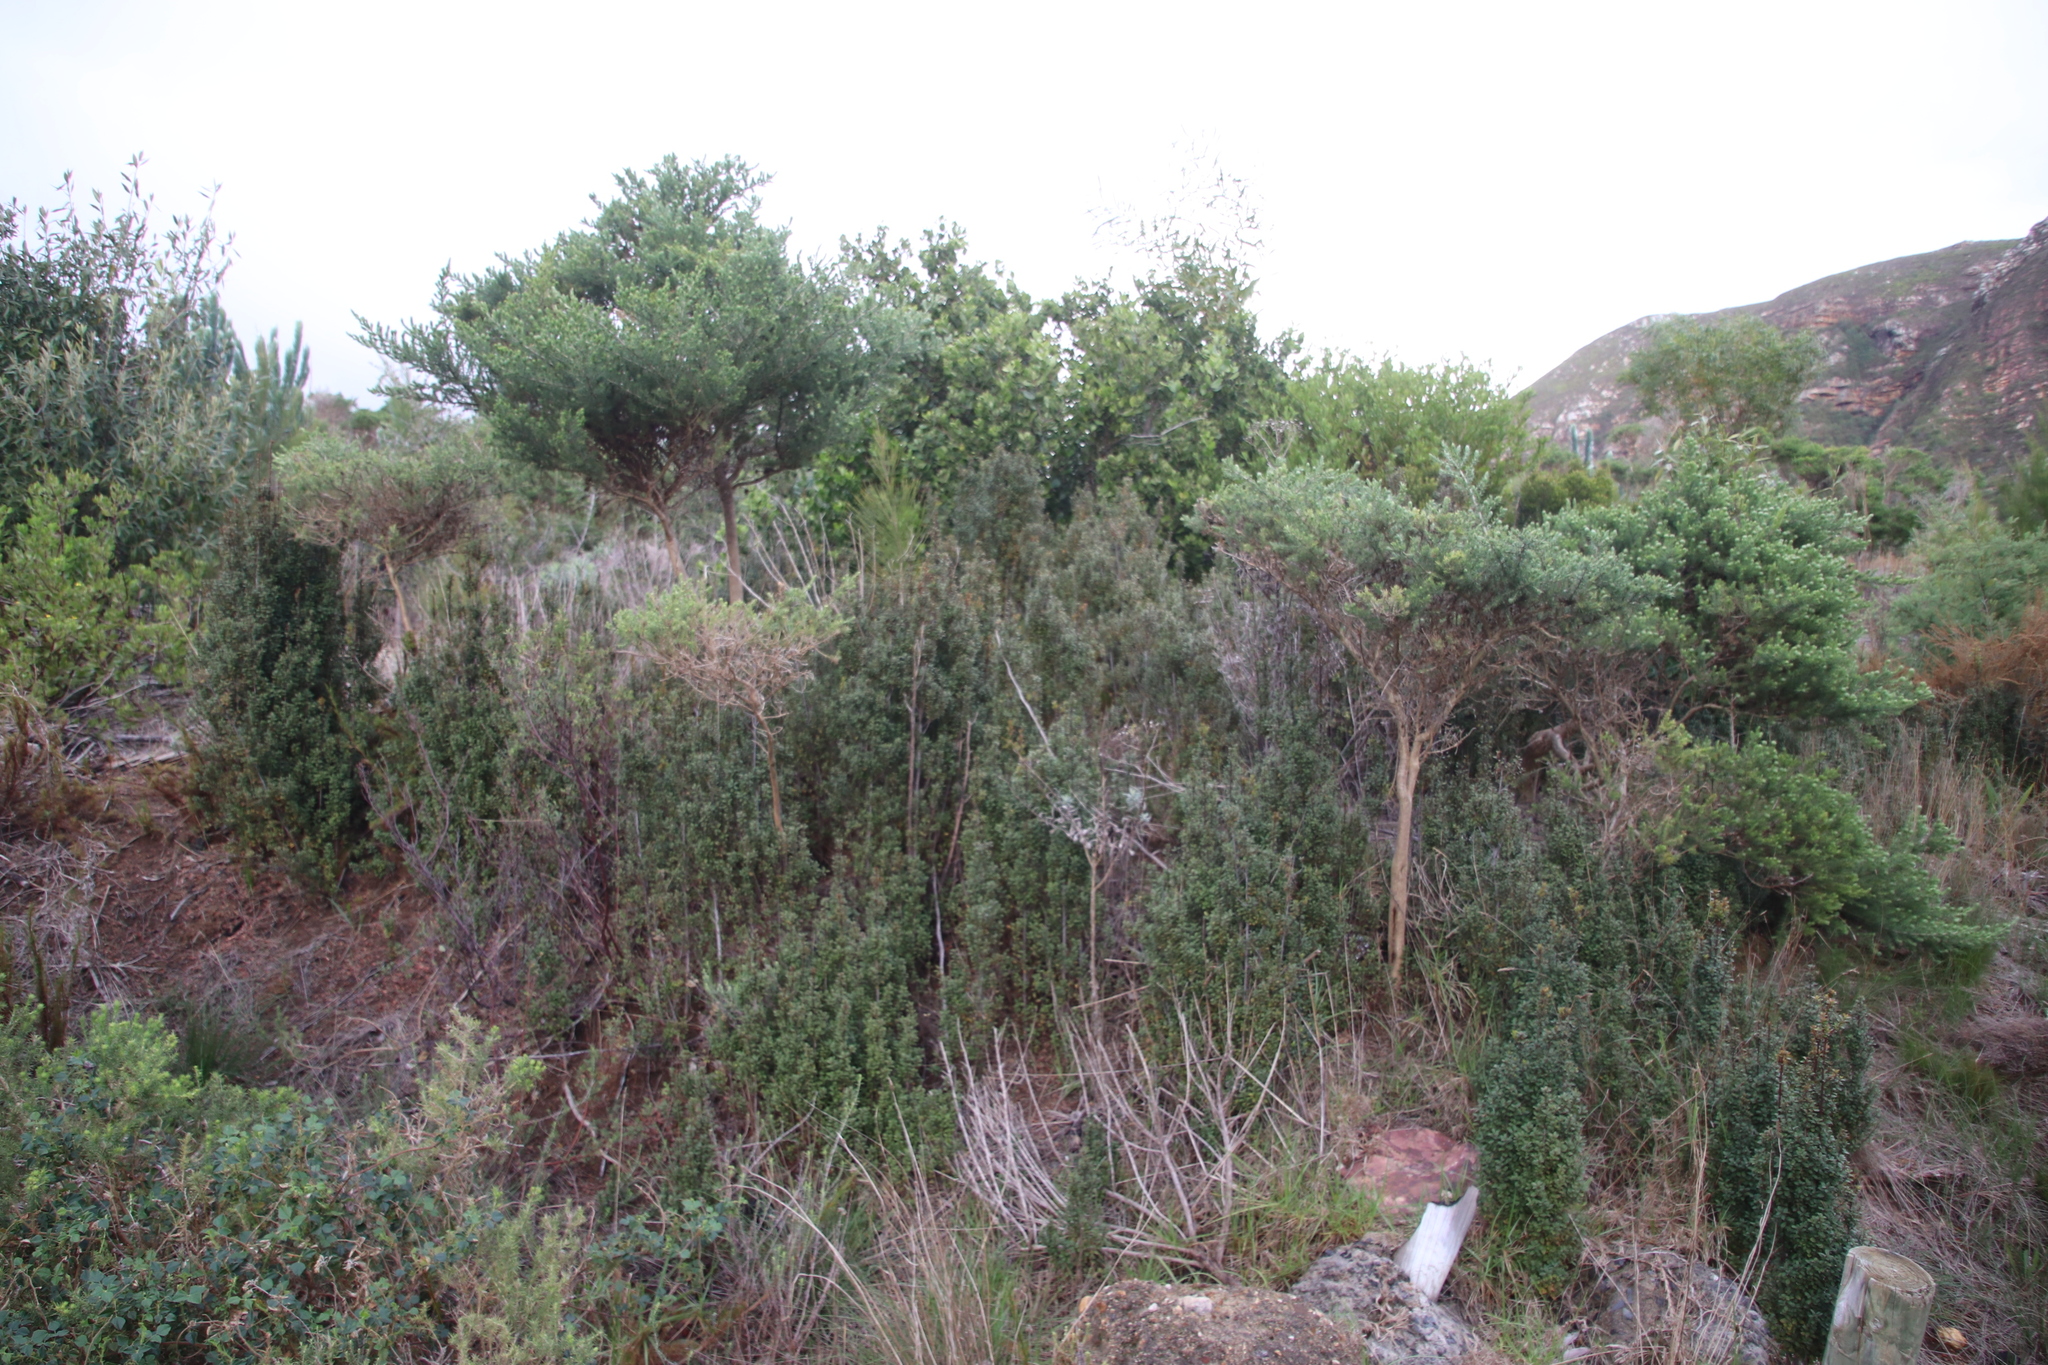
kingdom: Plantae
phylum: Tracheophyta
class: Magnoliopsida
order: Ericales
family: Primulaceae
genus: Myrsine
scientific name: Myrsine africana
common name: African-boxwood
